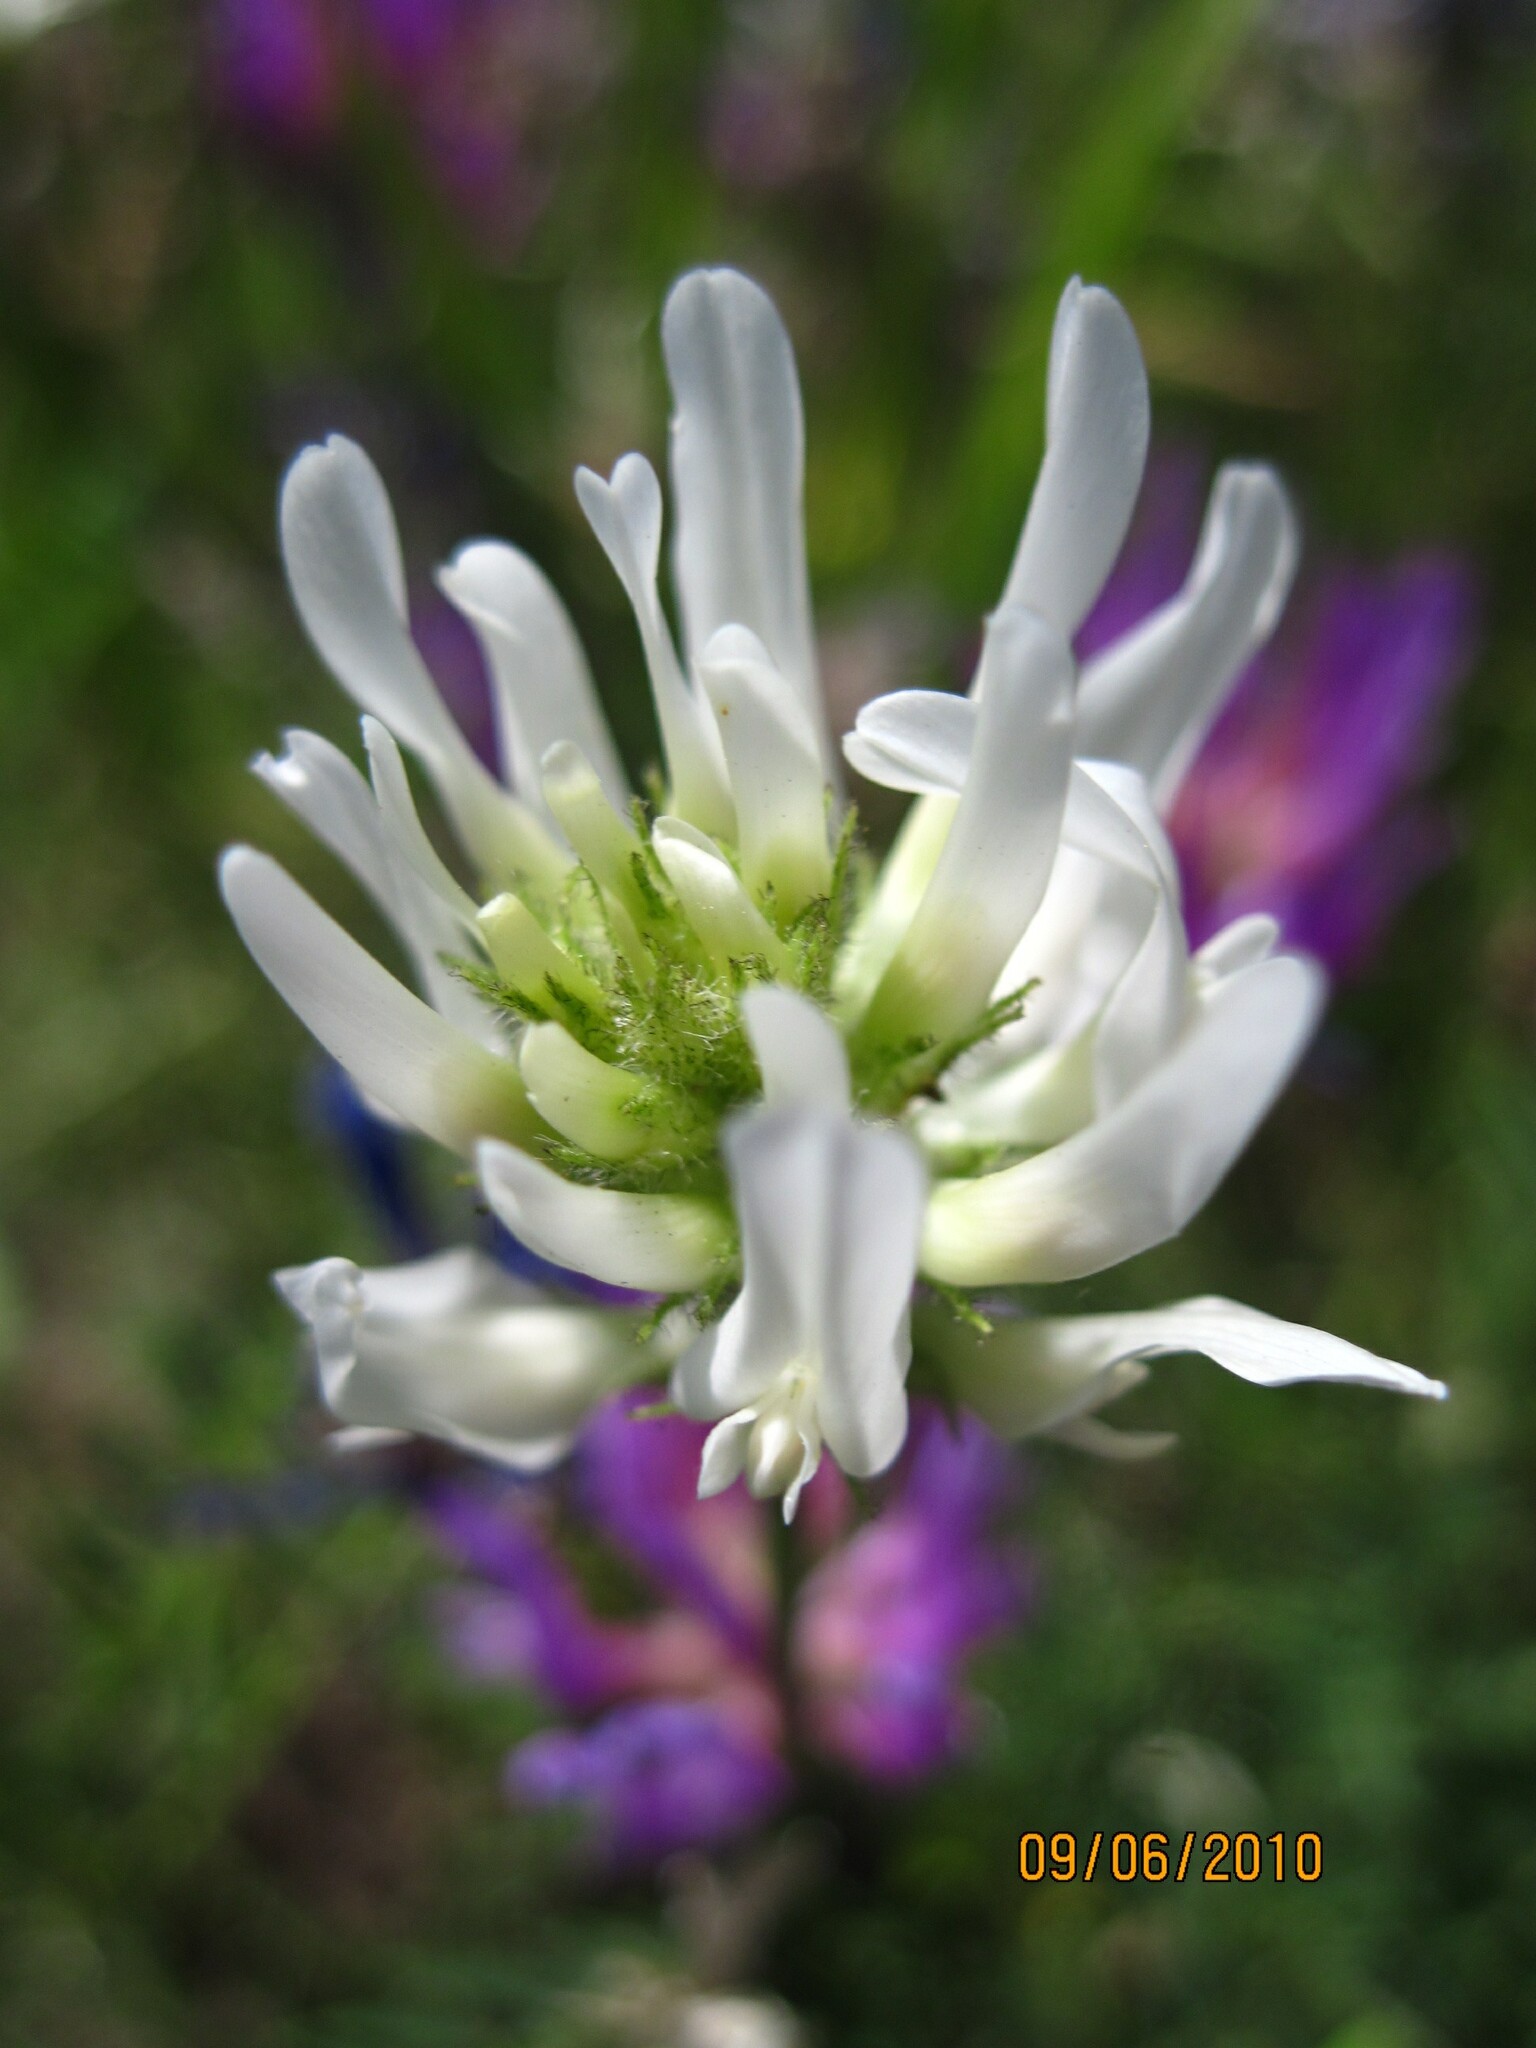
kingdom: Plantae
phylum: Tracheophyta
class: Magnoliopsida
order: Fabales
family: Fabaceae
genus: Astragalus
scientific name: Astragalus onobrychis
